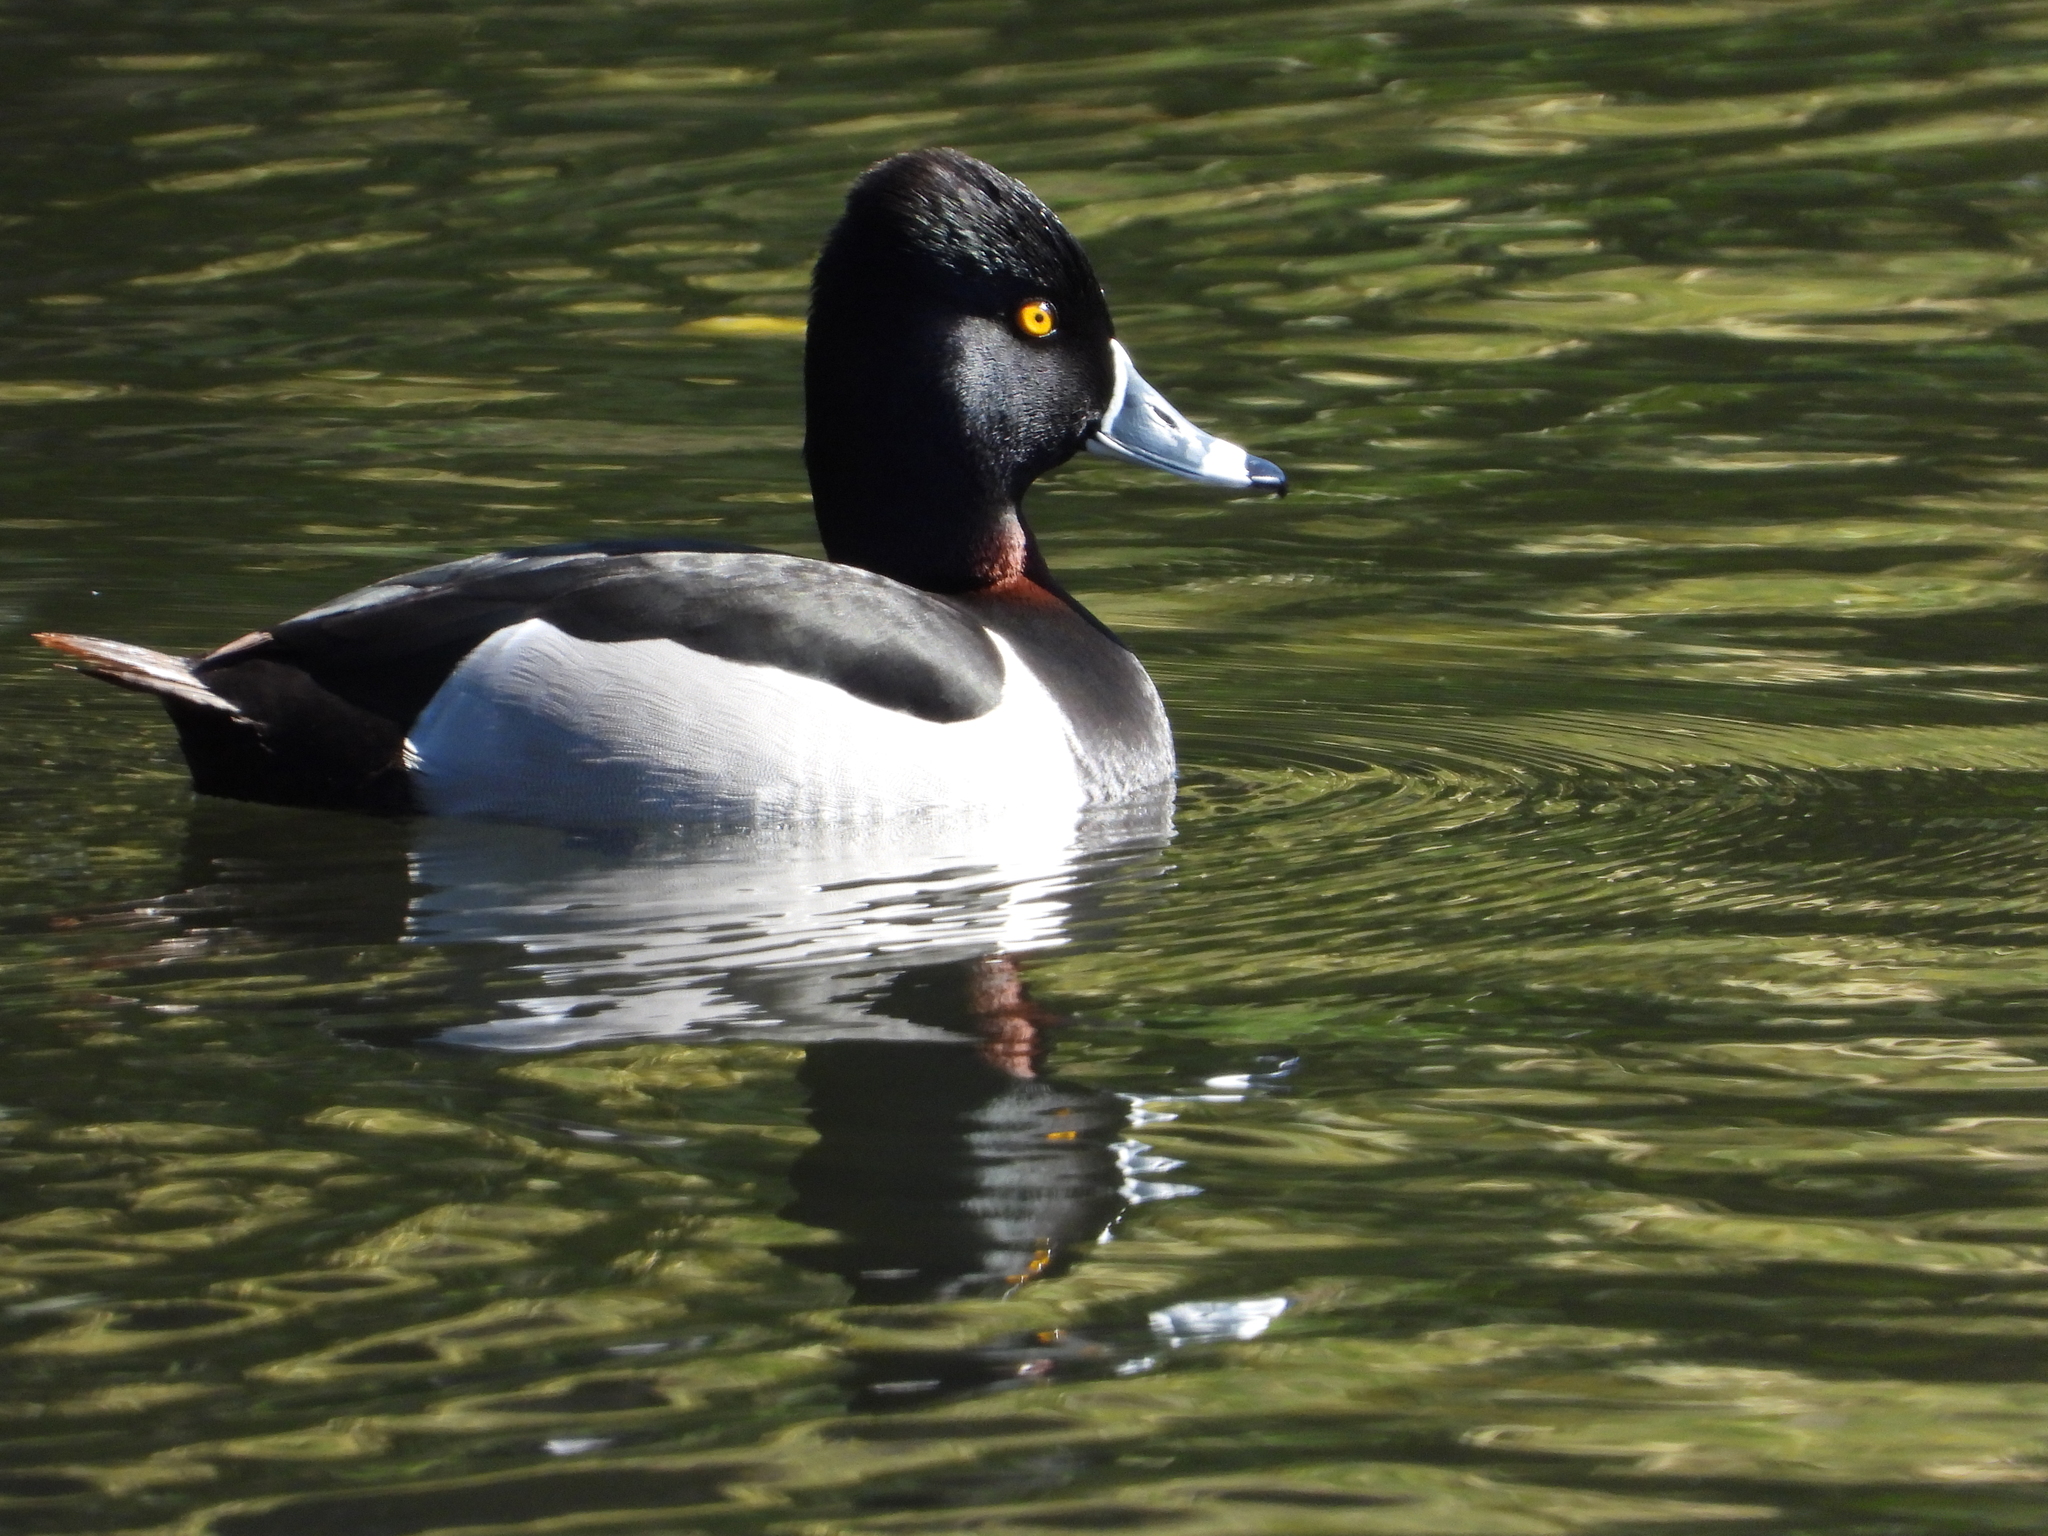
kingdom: Animalia
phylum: Chordata
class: Aves
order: Anseriformes
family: Anatidae
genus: Aythya
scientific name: Aythya collaris
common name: Ring-necked duck
